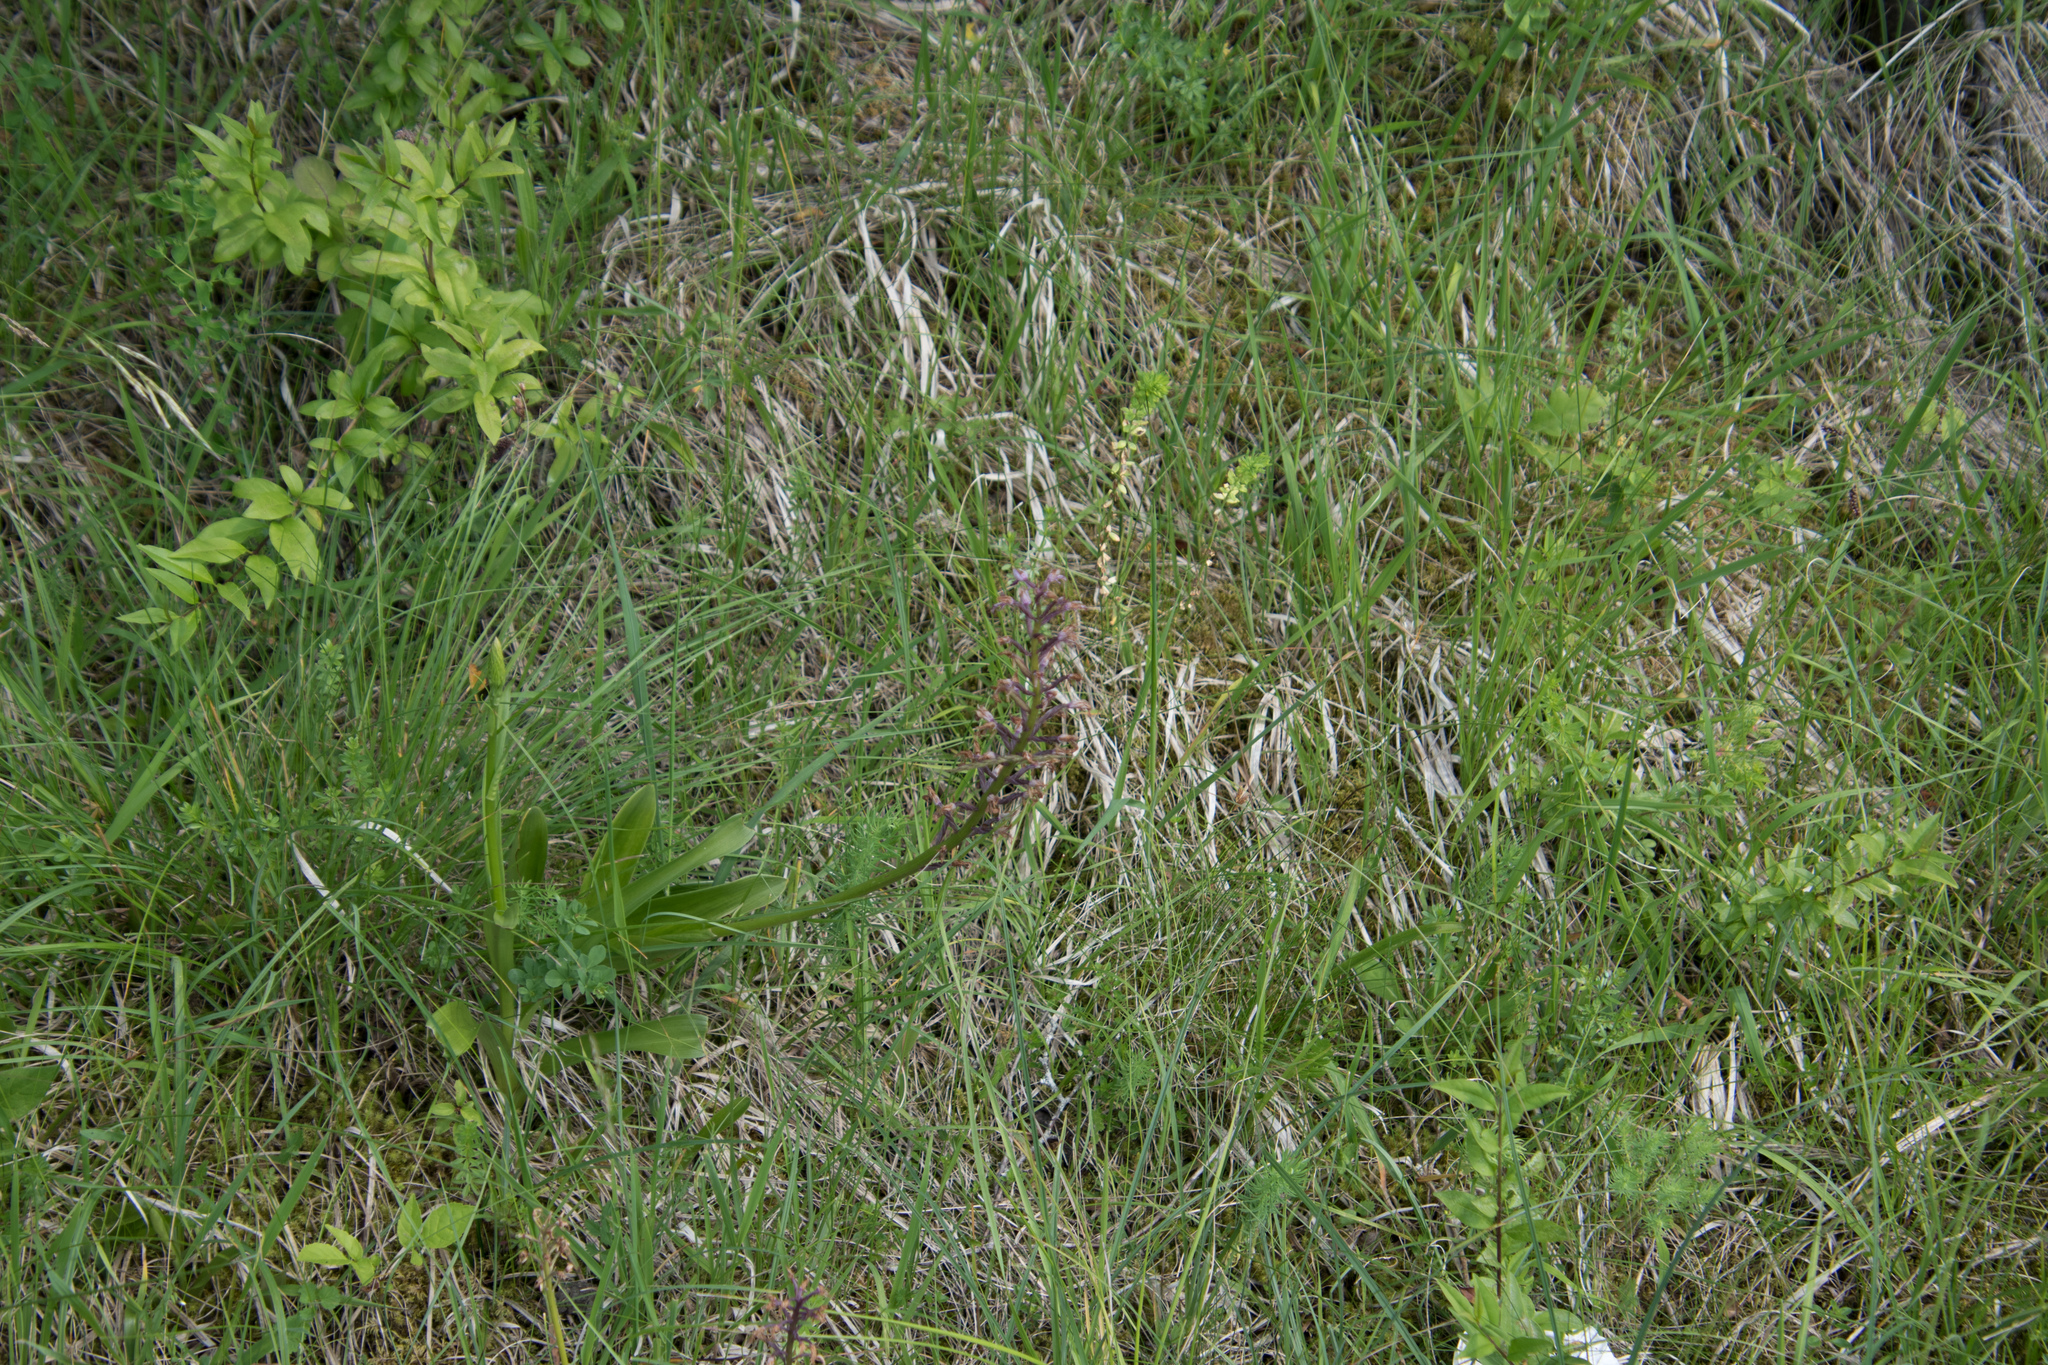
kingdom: Plantae
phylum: Tracheophyta
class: Liliopsida
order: Asparagales
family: Orchidaceae
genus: Orchis
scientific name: Orchis militaris
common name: Military orchid
